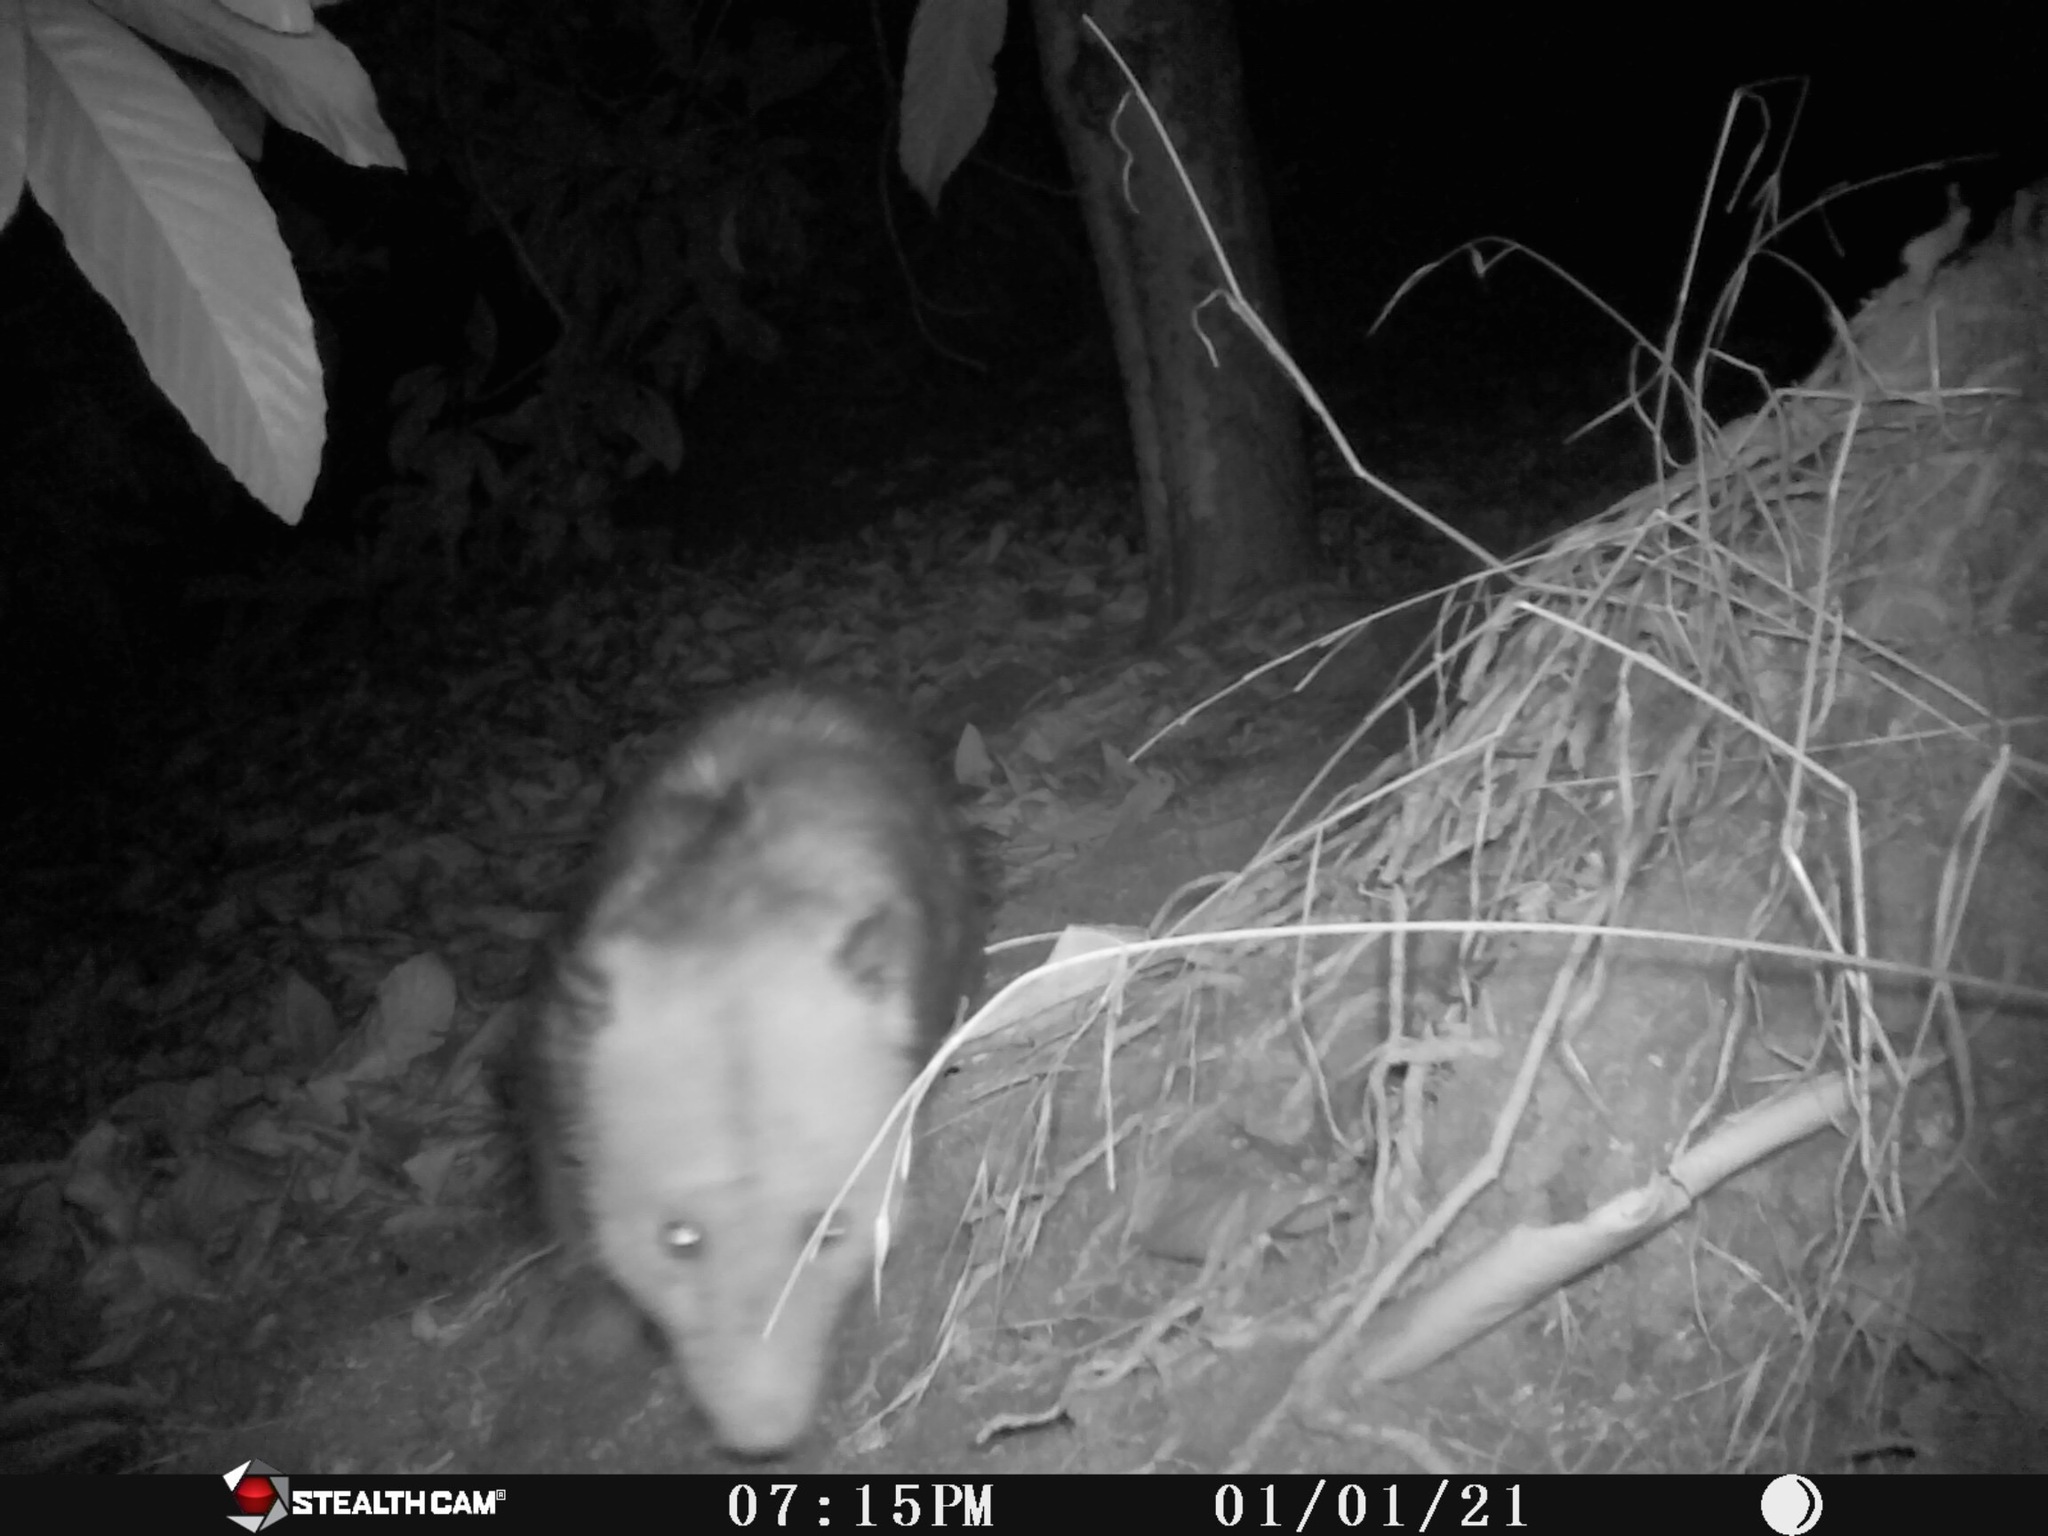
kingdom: Animalia
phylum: Chordata
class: Mammalia
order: Didelphimorphia
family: Didelphidae
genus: Didelphis
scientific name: Didelphis virginiana
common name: Virginia opossum
